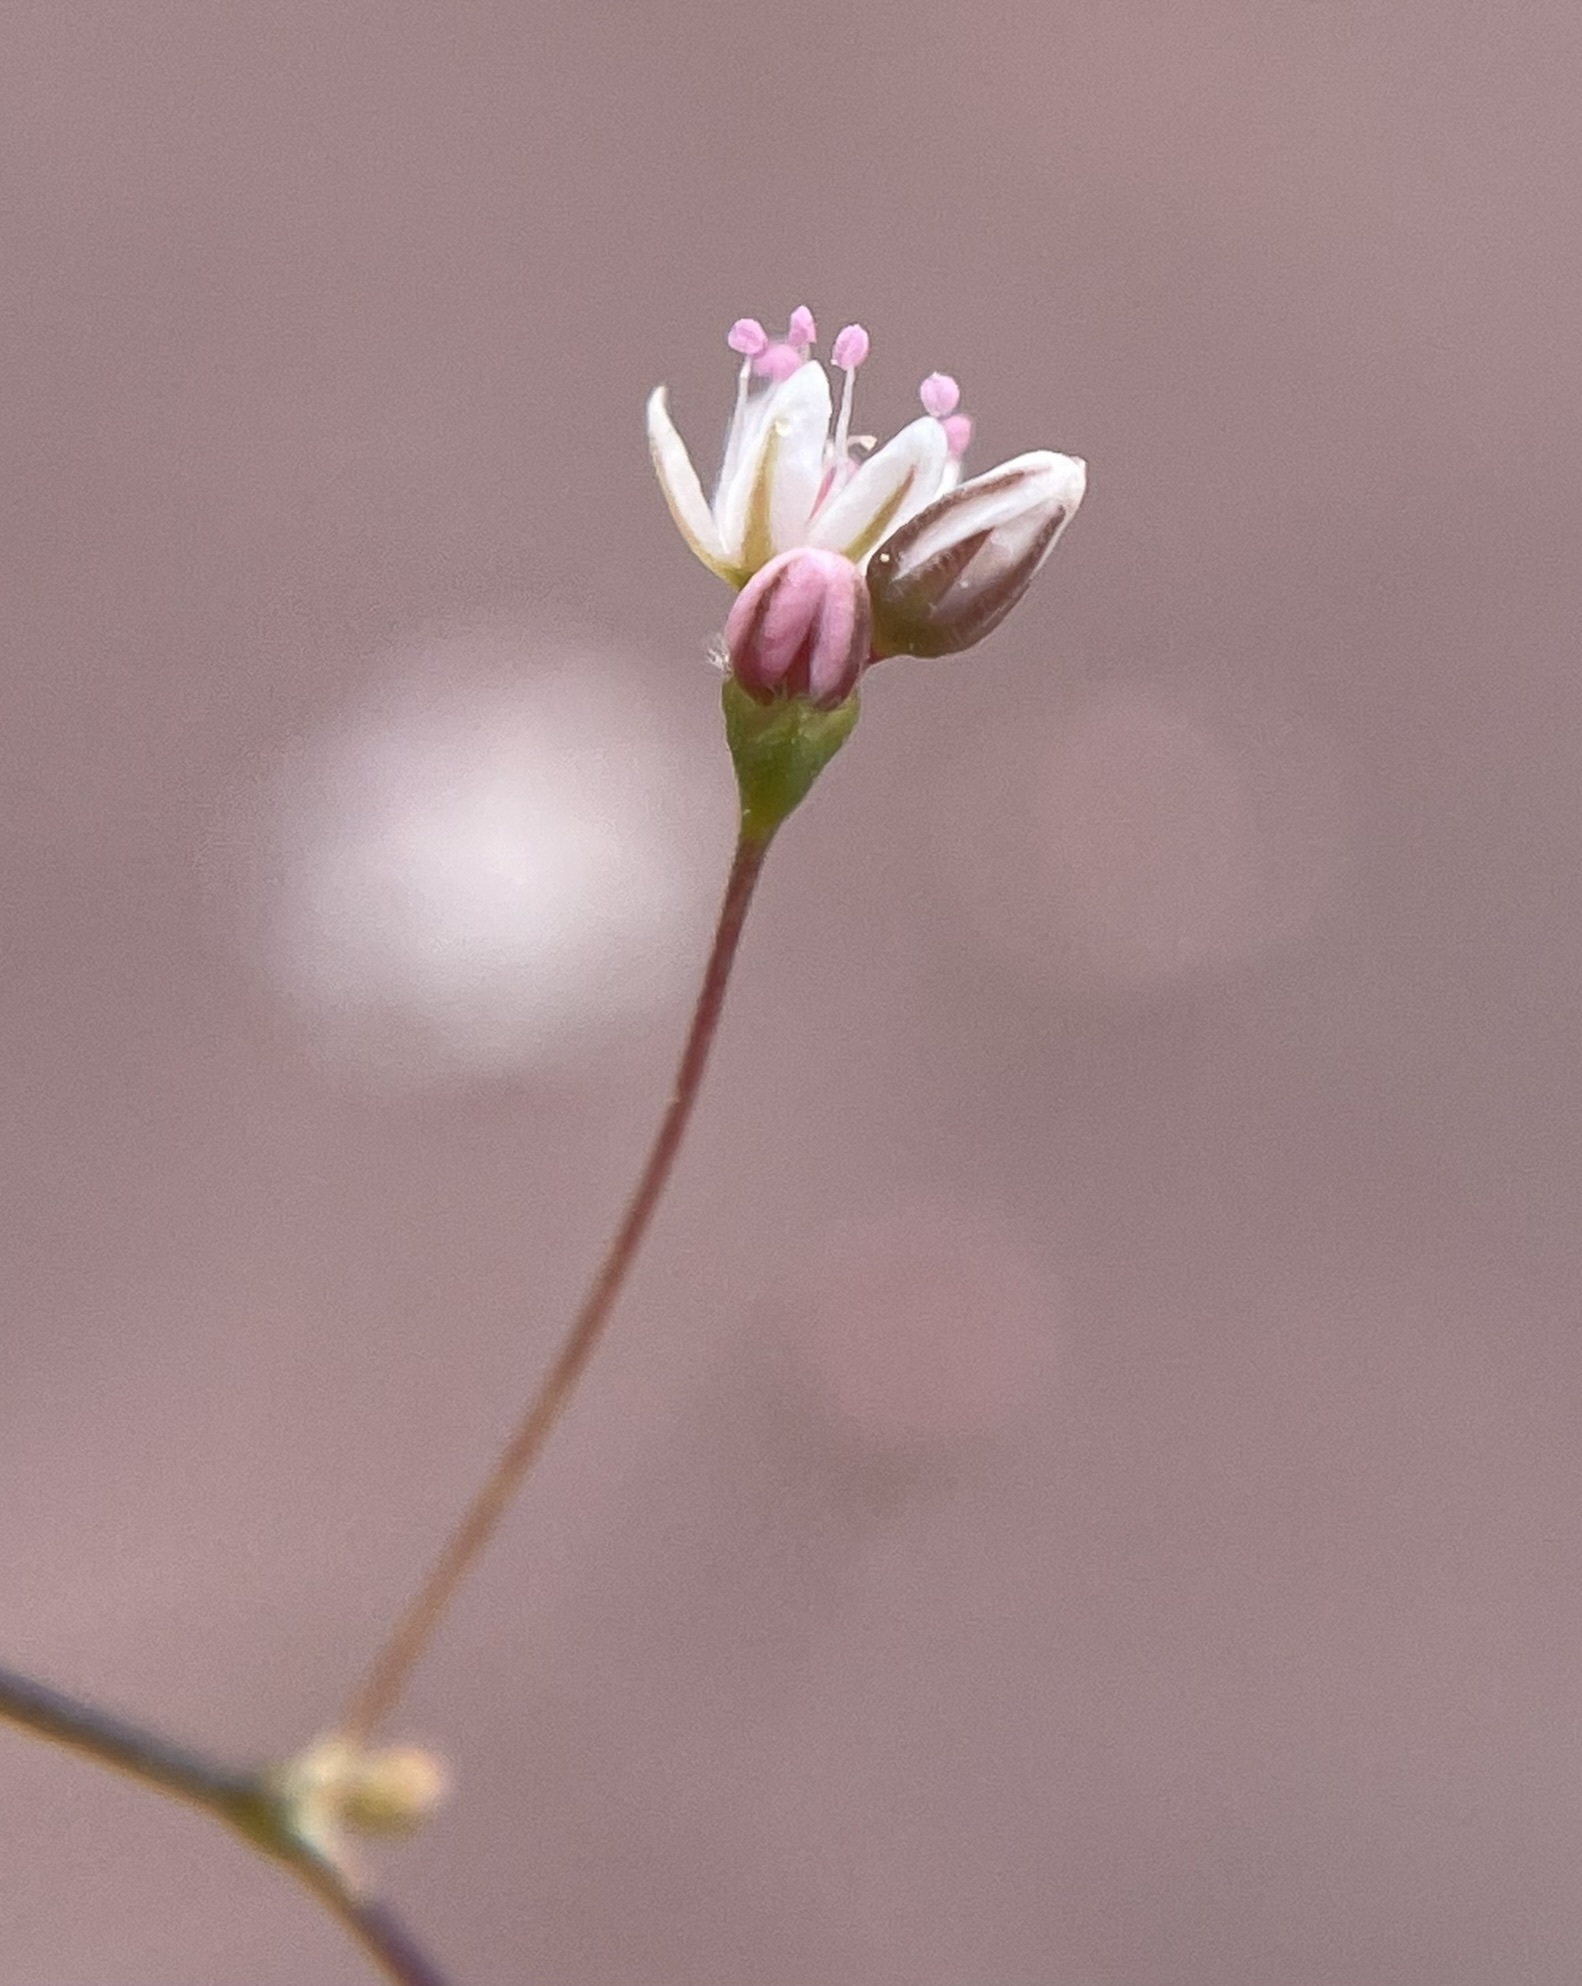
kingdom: Plantae
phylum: Tracheophyta
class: Magnoliopsida
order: Caryophyllales
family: Polygonaceae
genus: Eriogonum
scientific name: Eriogonum subreniforme
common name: Kidney-shape wild buckwheat
